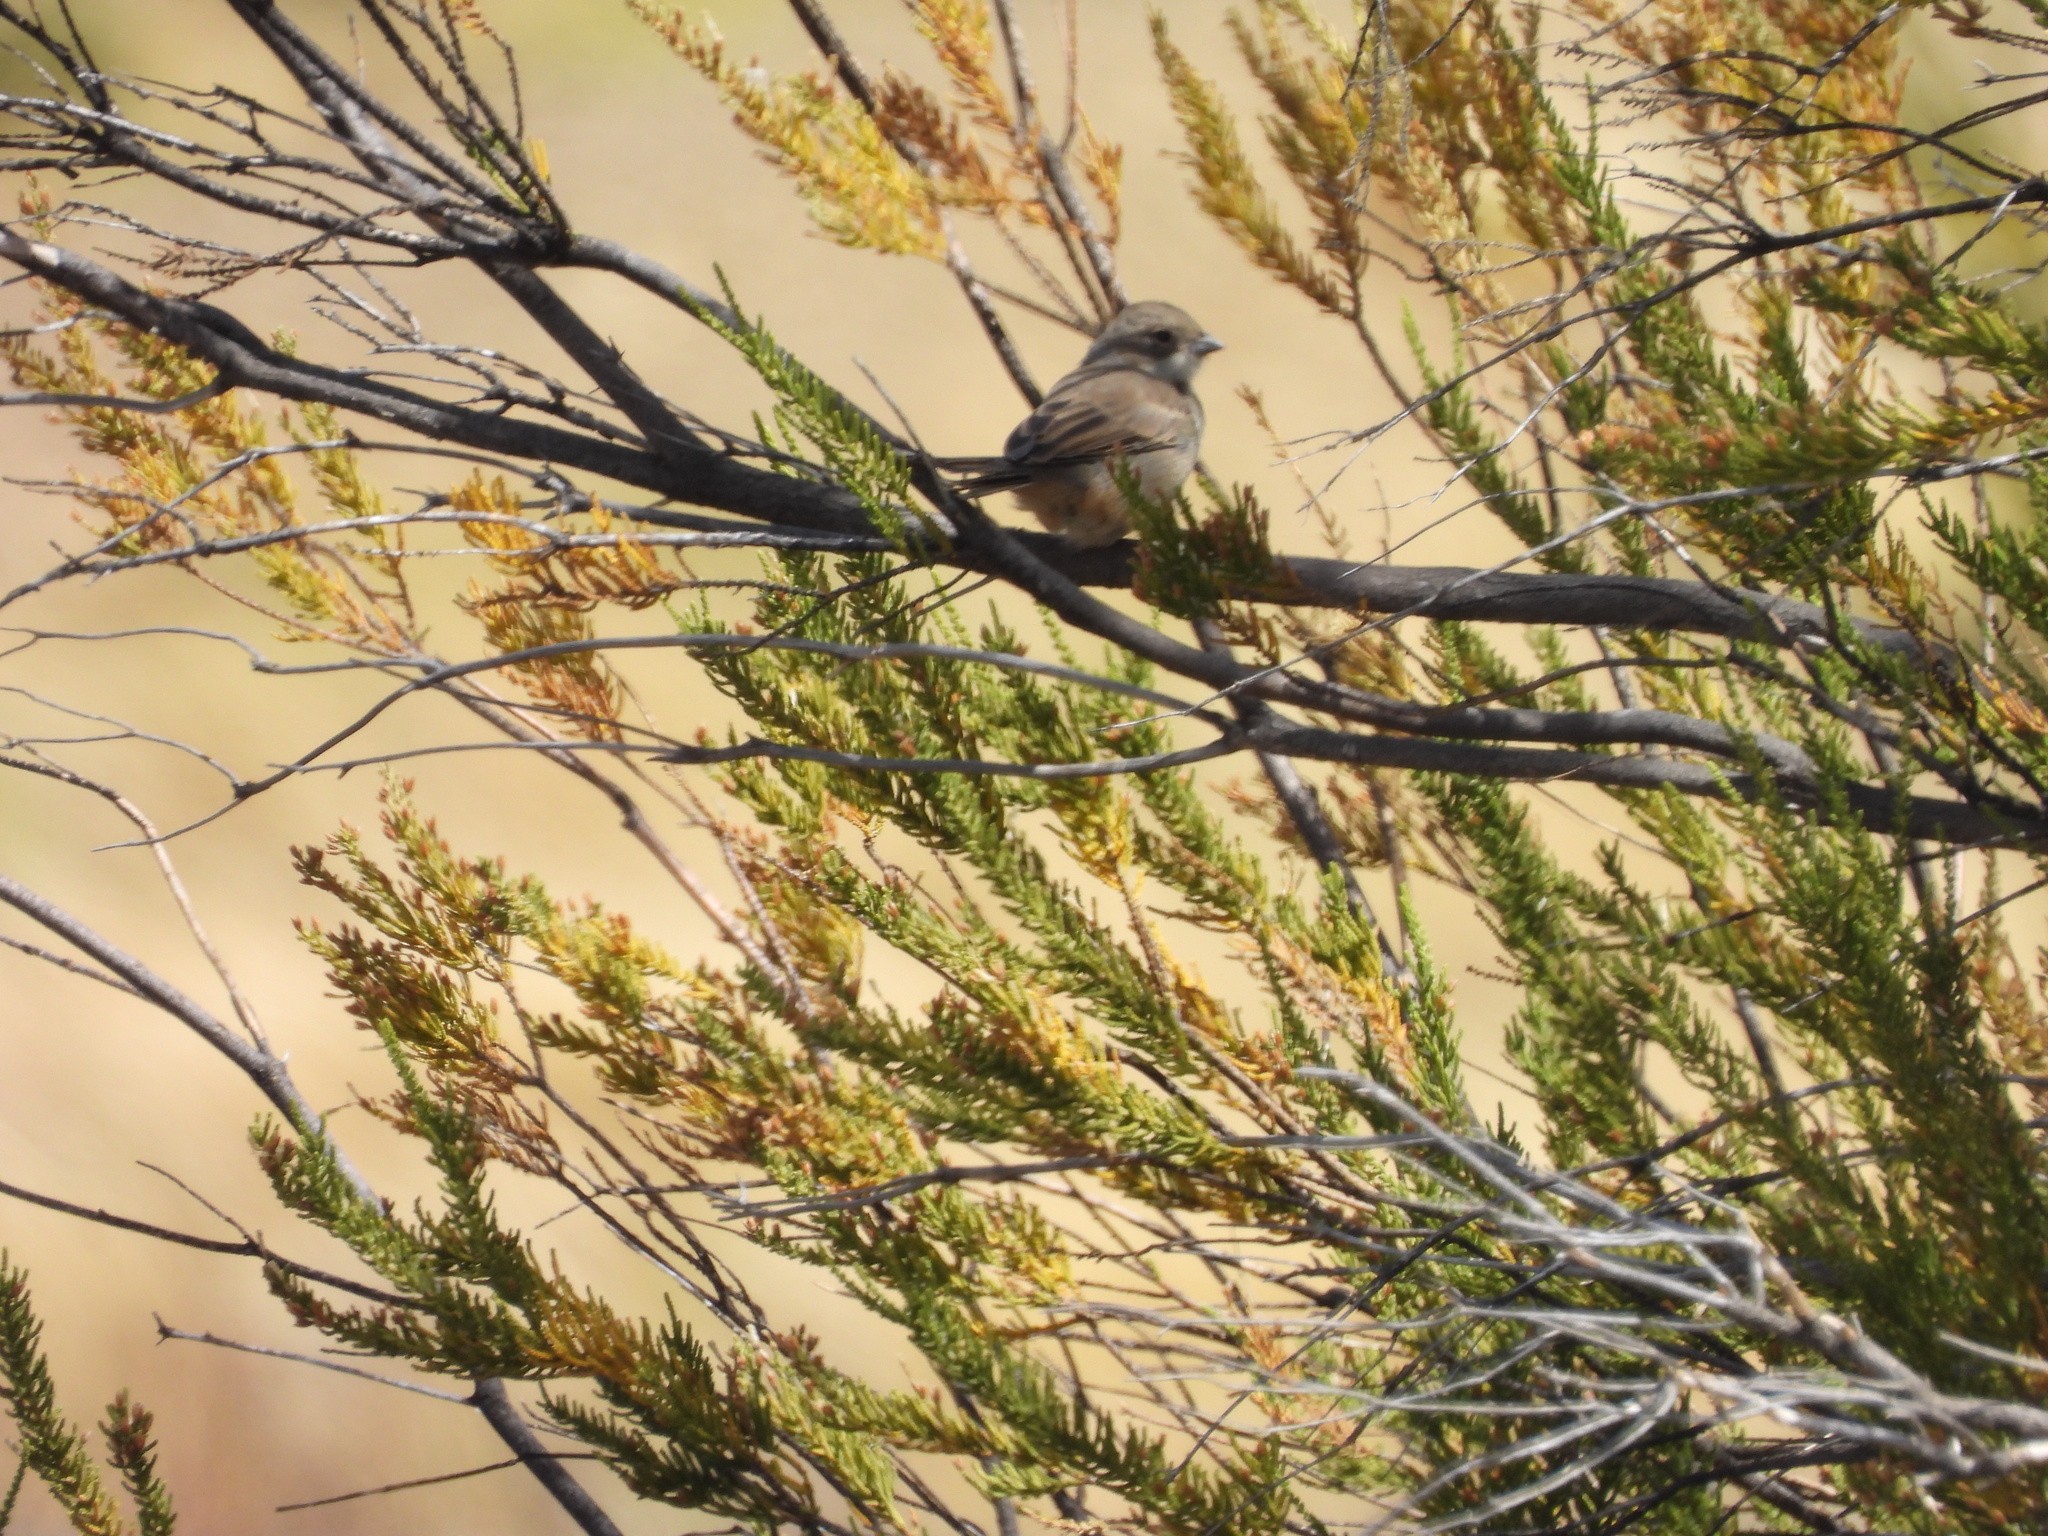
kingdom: Animalia
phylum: Chordata
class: Aves
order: Passeriformes
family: Thraupidae
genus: Diuca
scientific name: Diuca diuca
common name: Common diuca finch
